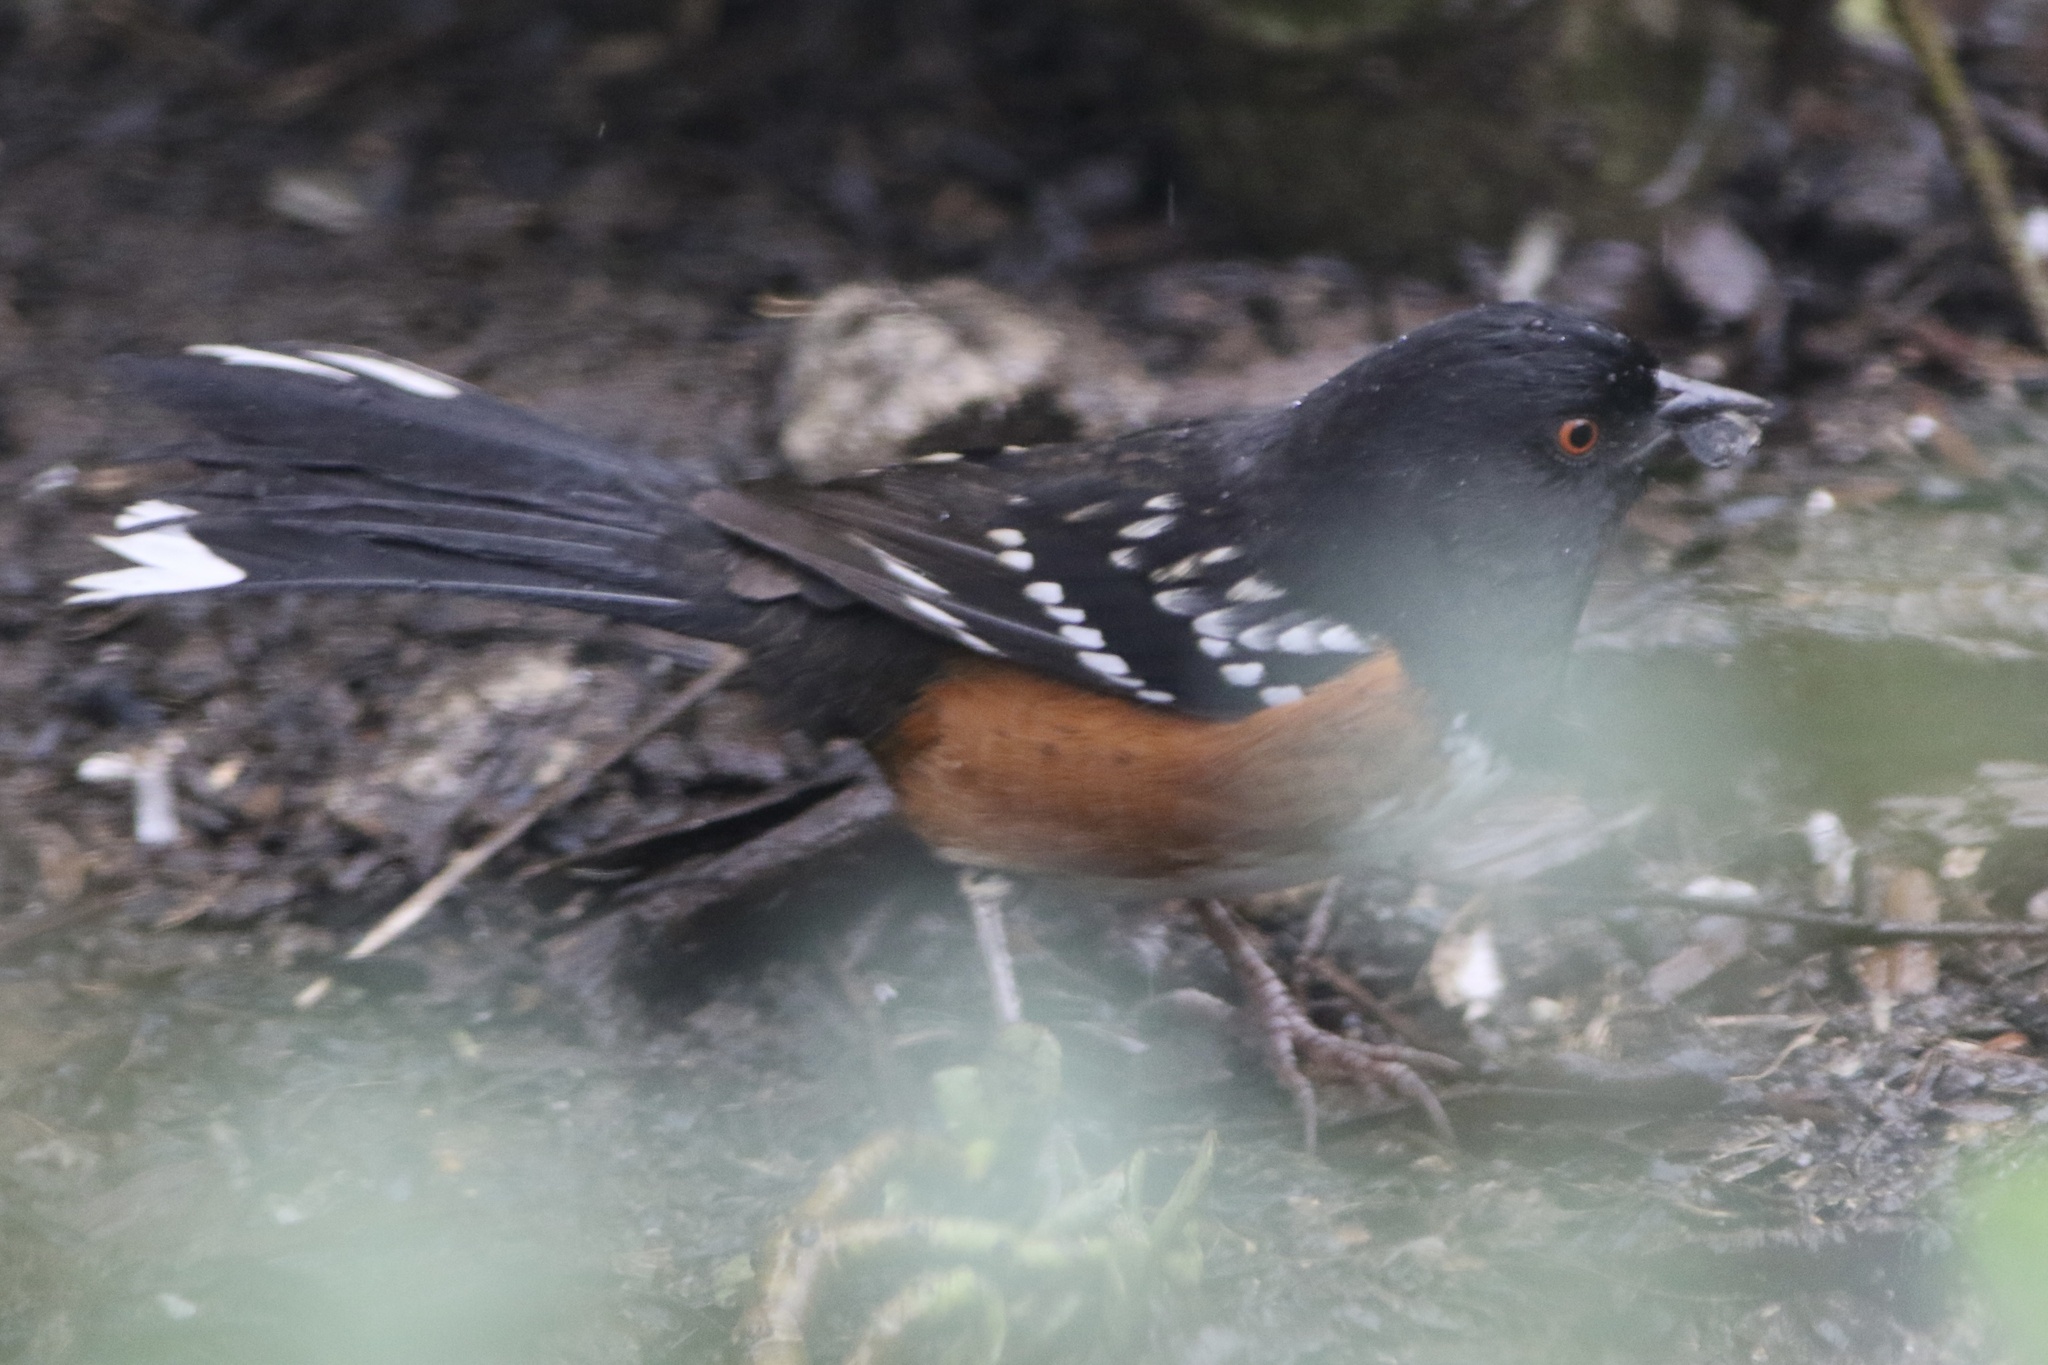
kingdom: Animalia
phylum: Chordata
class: Aves
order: Passeriformes
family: Passerellidae
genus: Pipilo
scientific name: Pipilo maculatus
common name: Spotted towhee
